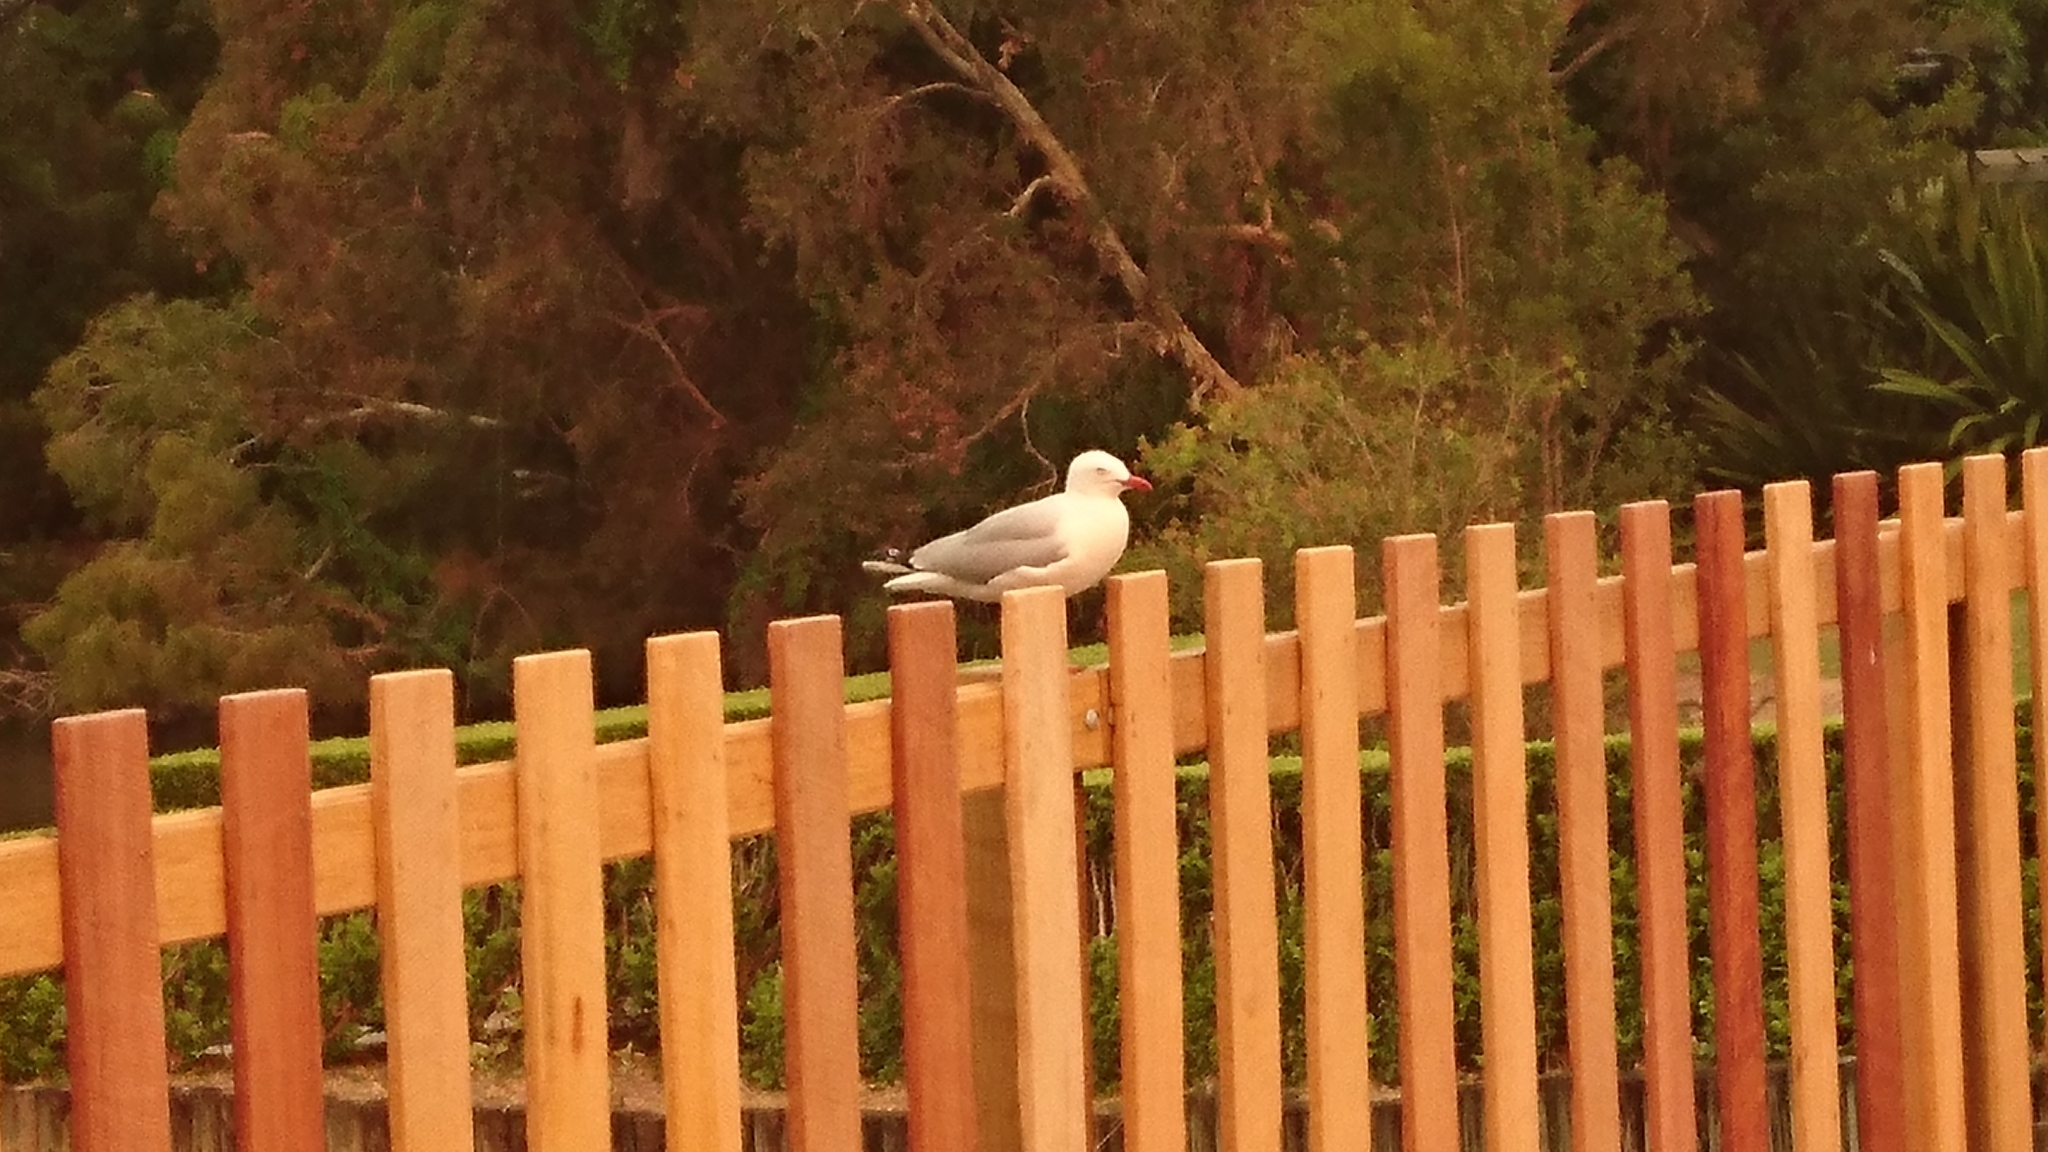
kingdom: Animalia
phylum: Chordata
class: Aves
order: Charadriiformes
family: Laridae
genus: Chroicocephalus
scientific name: Chroicocephalus novaehollandiae
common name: Silver gull
